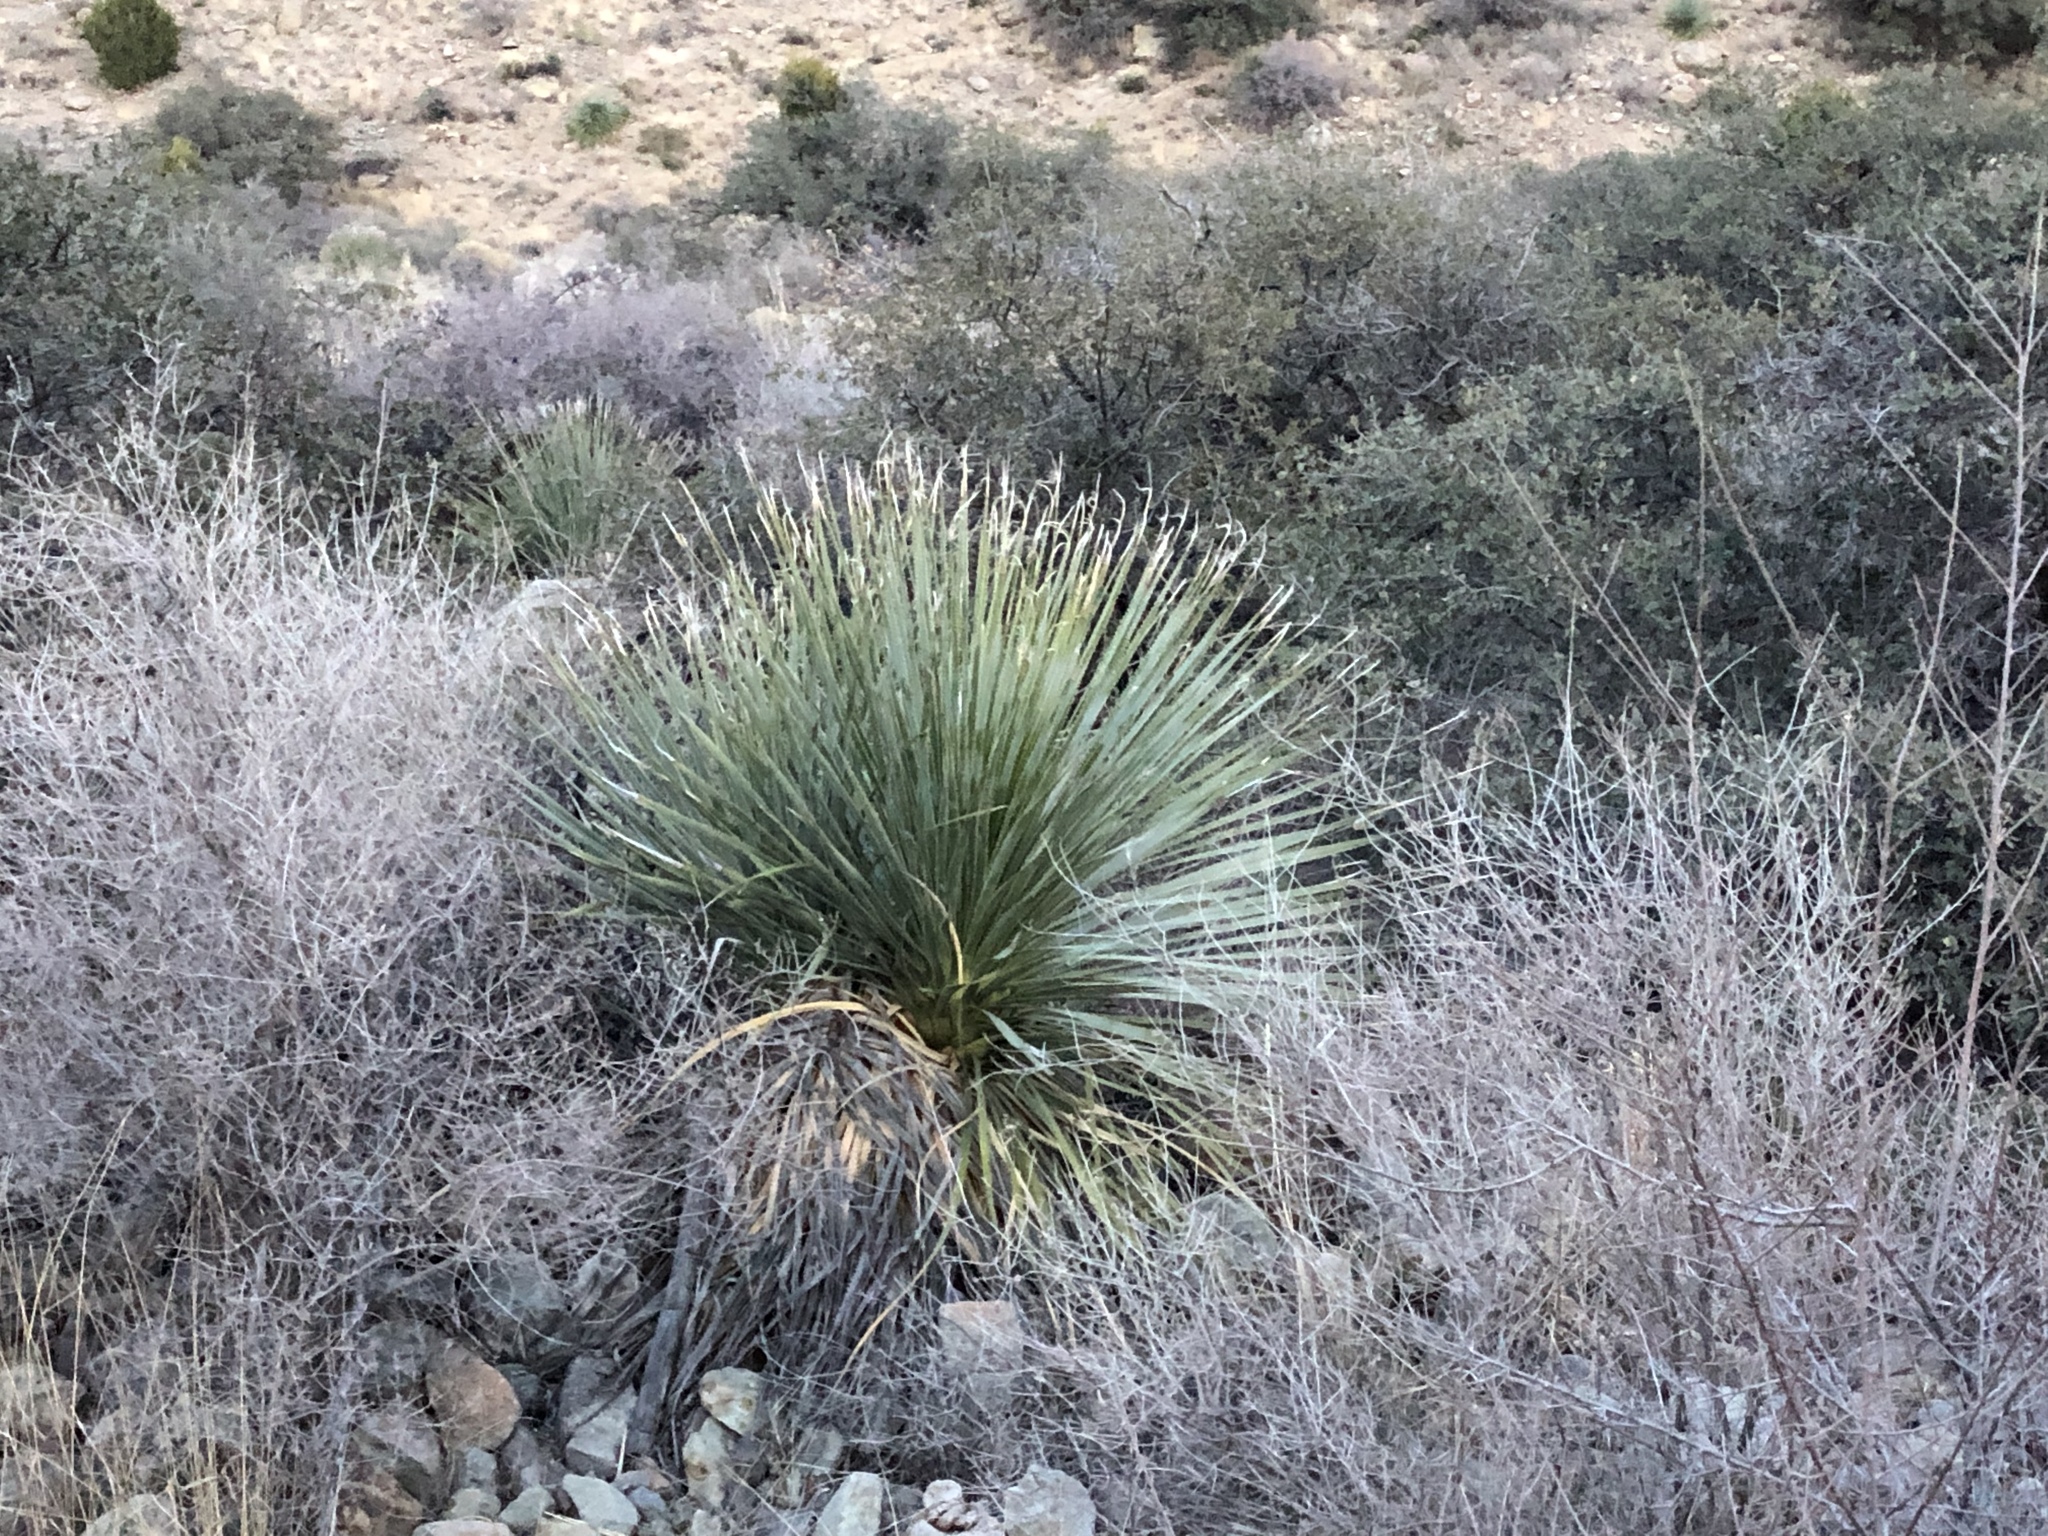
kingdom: Plantae
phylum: Tracheophyta
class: Liliopsida
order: Asparagales
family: Asparagaceae
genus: Dasylirion
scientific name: Dasylirion wheeleri
